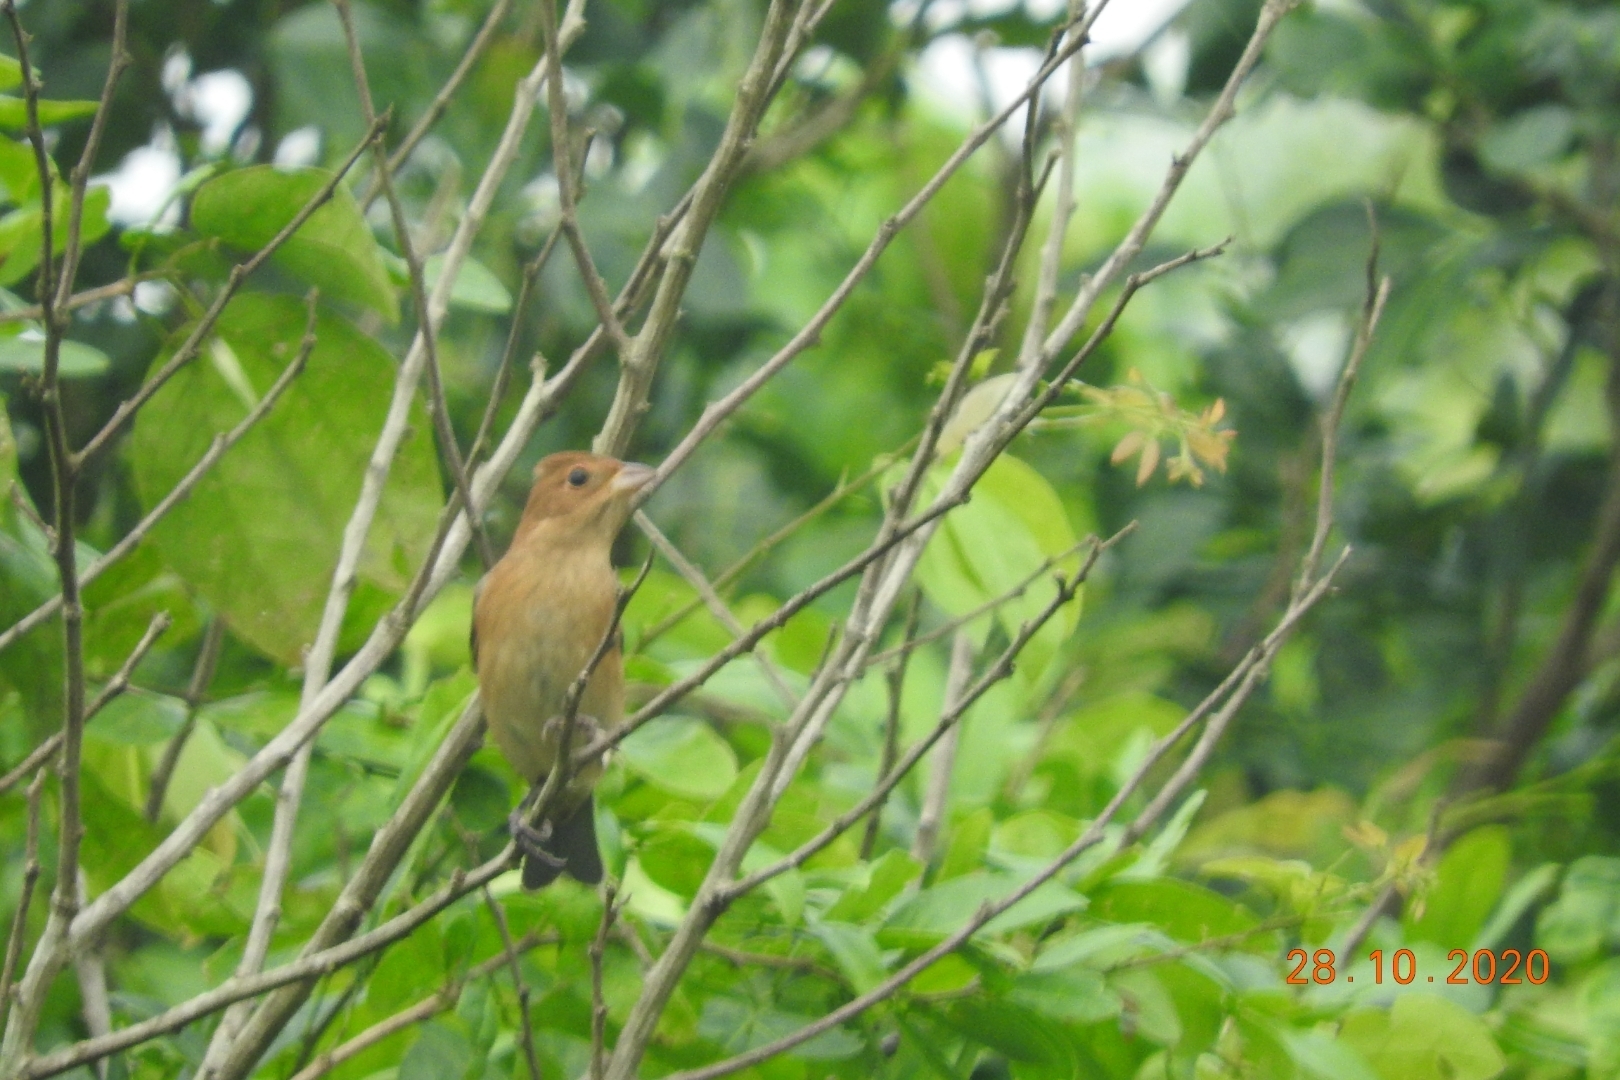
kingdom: Animalia
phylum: Chordata
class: Aves
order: Passeriformes
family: Cardinalidae
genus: Passerina
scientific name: Passerina cyanea
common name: Indigo bunting
